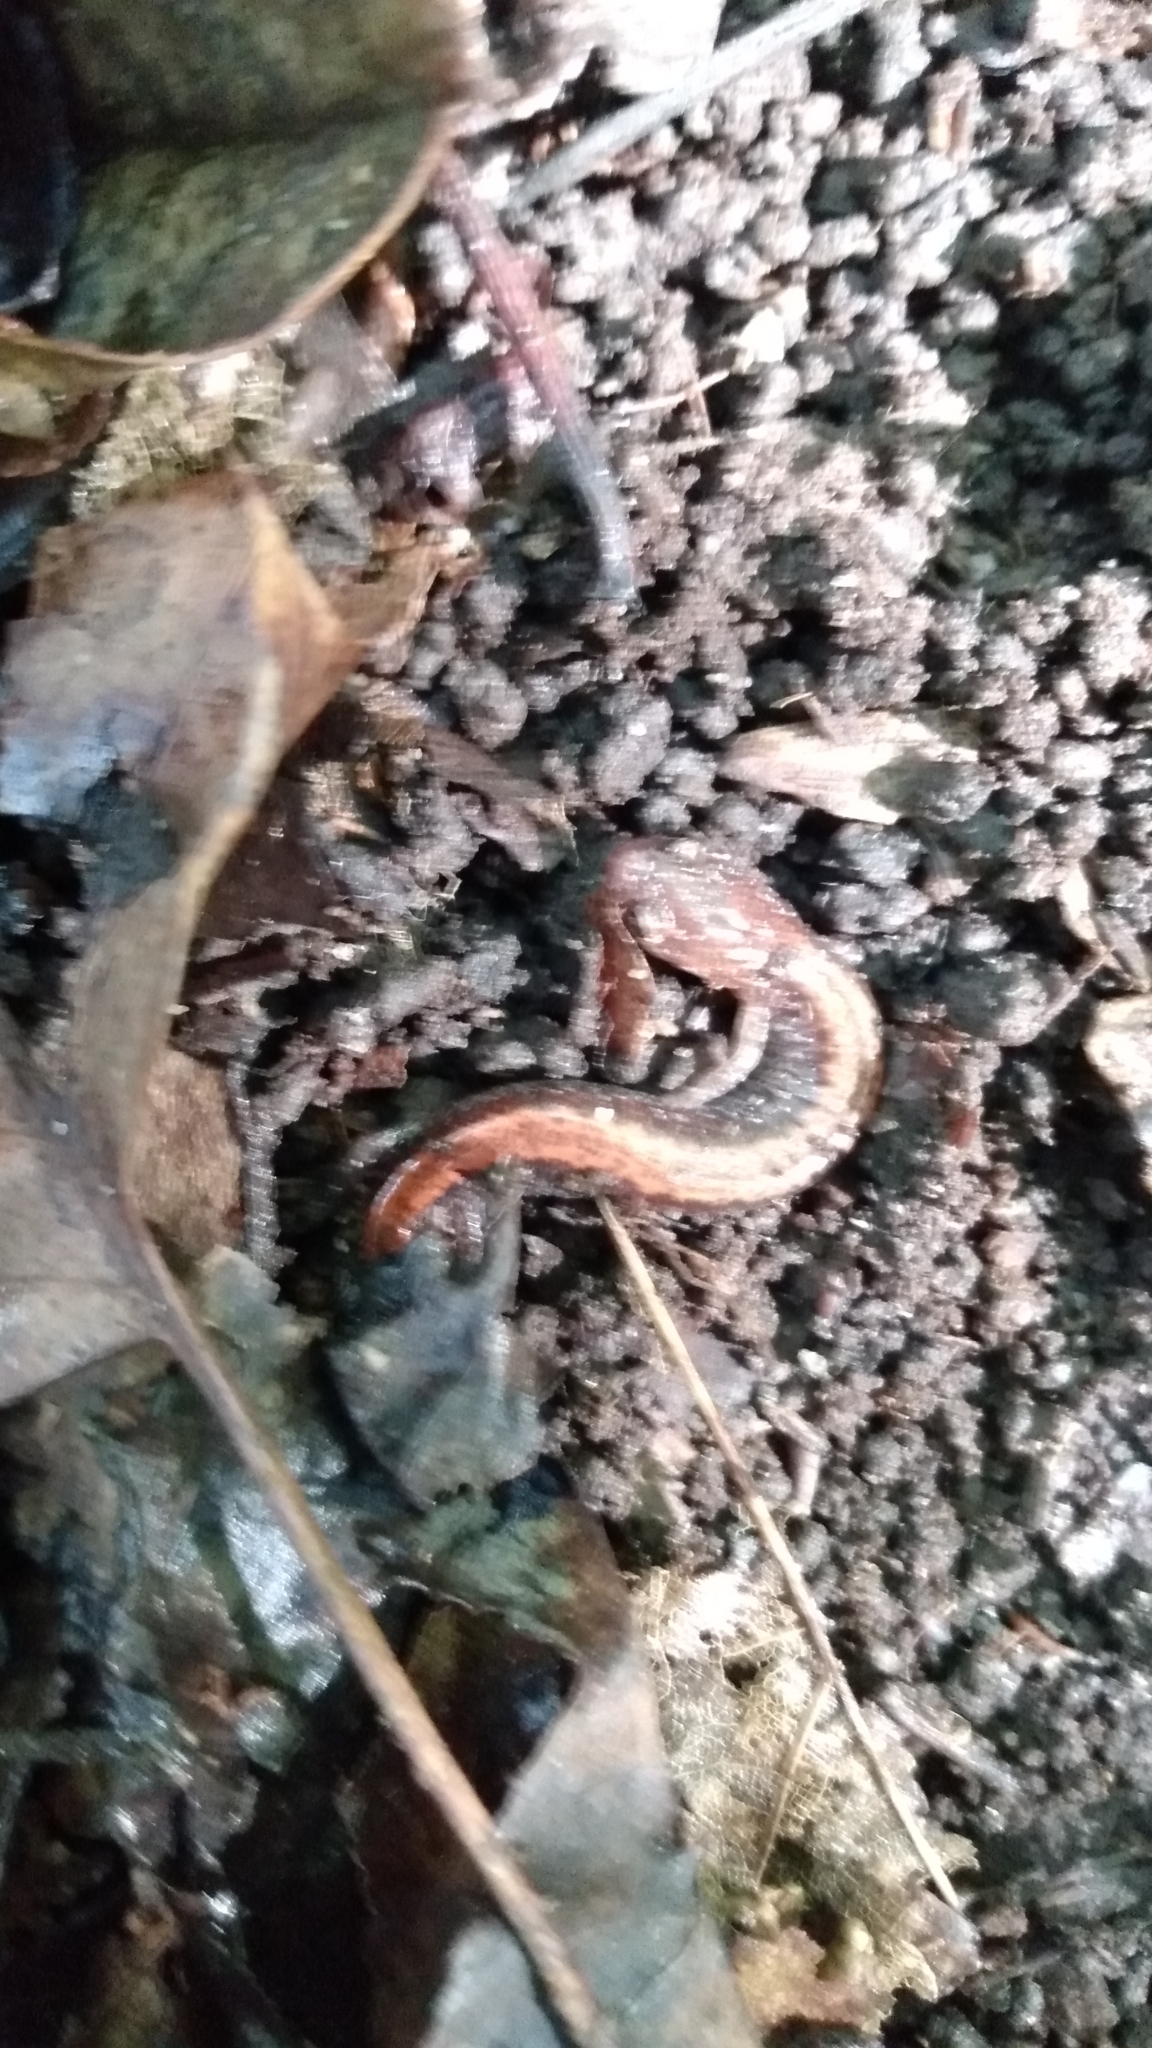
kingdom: Animalia
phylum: Chordata
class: Amphibia
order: Caudata
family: Plethodontidae
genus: Plethodon
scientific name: Plethodon cinereus
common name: Redback salamander
